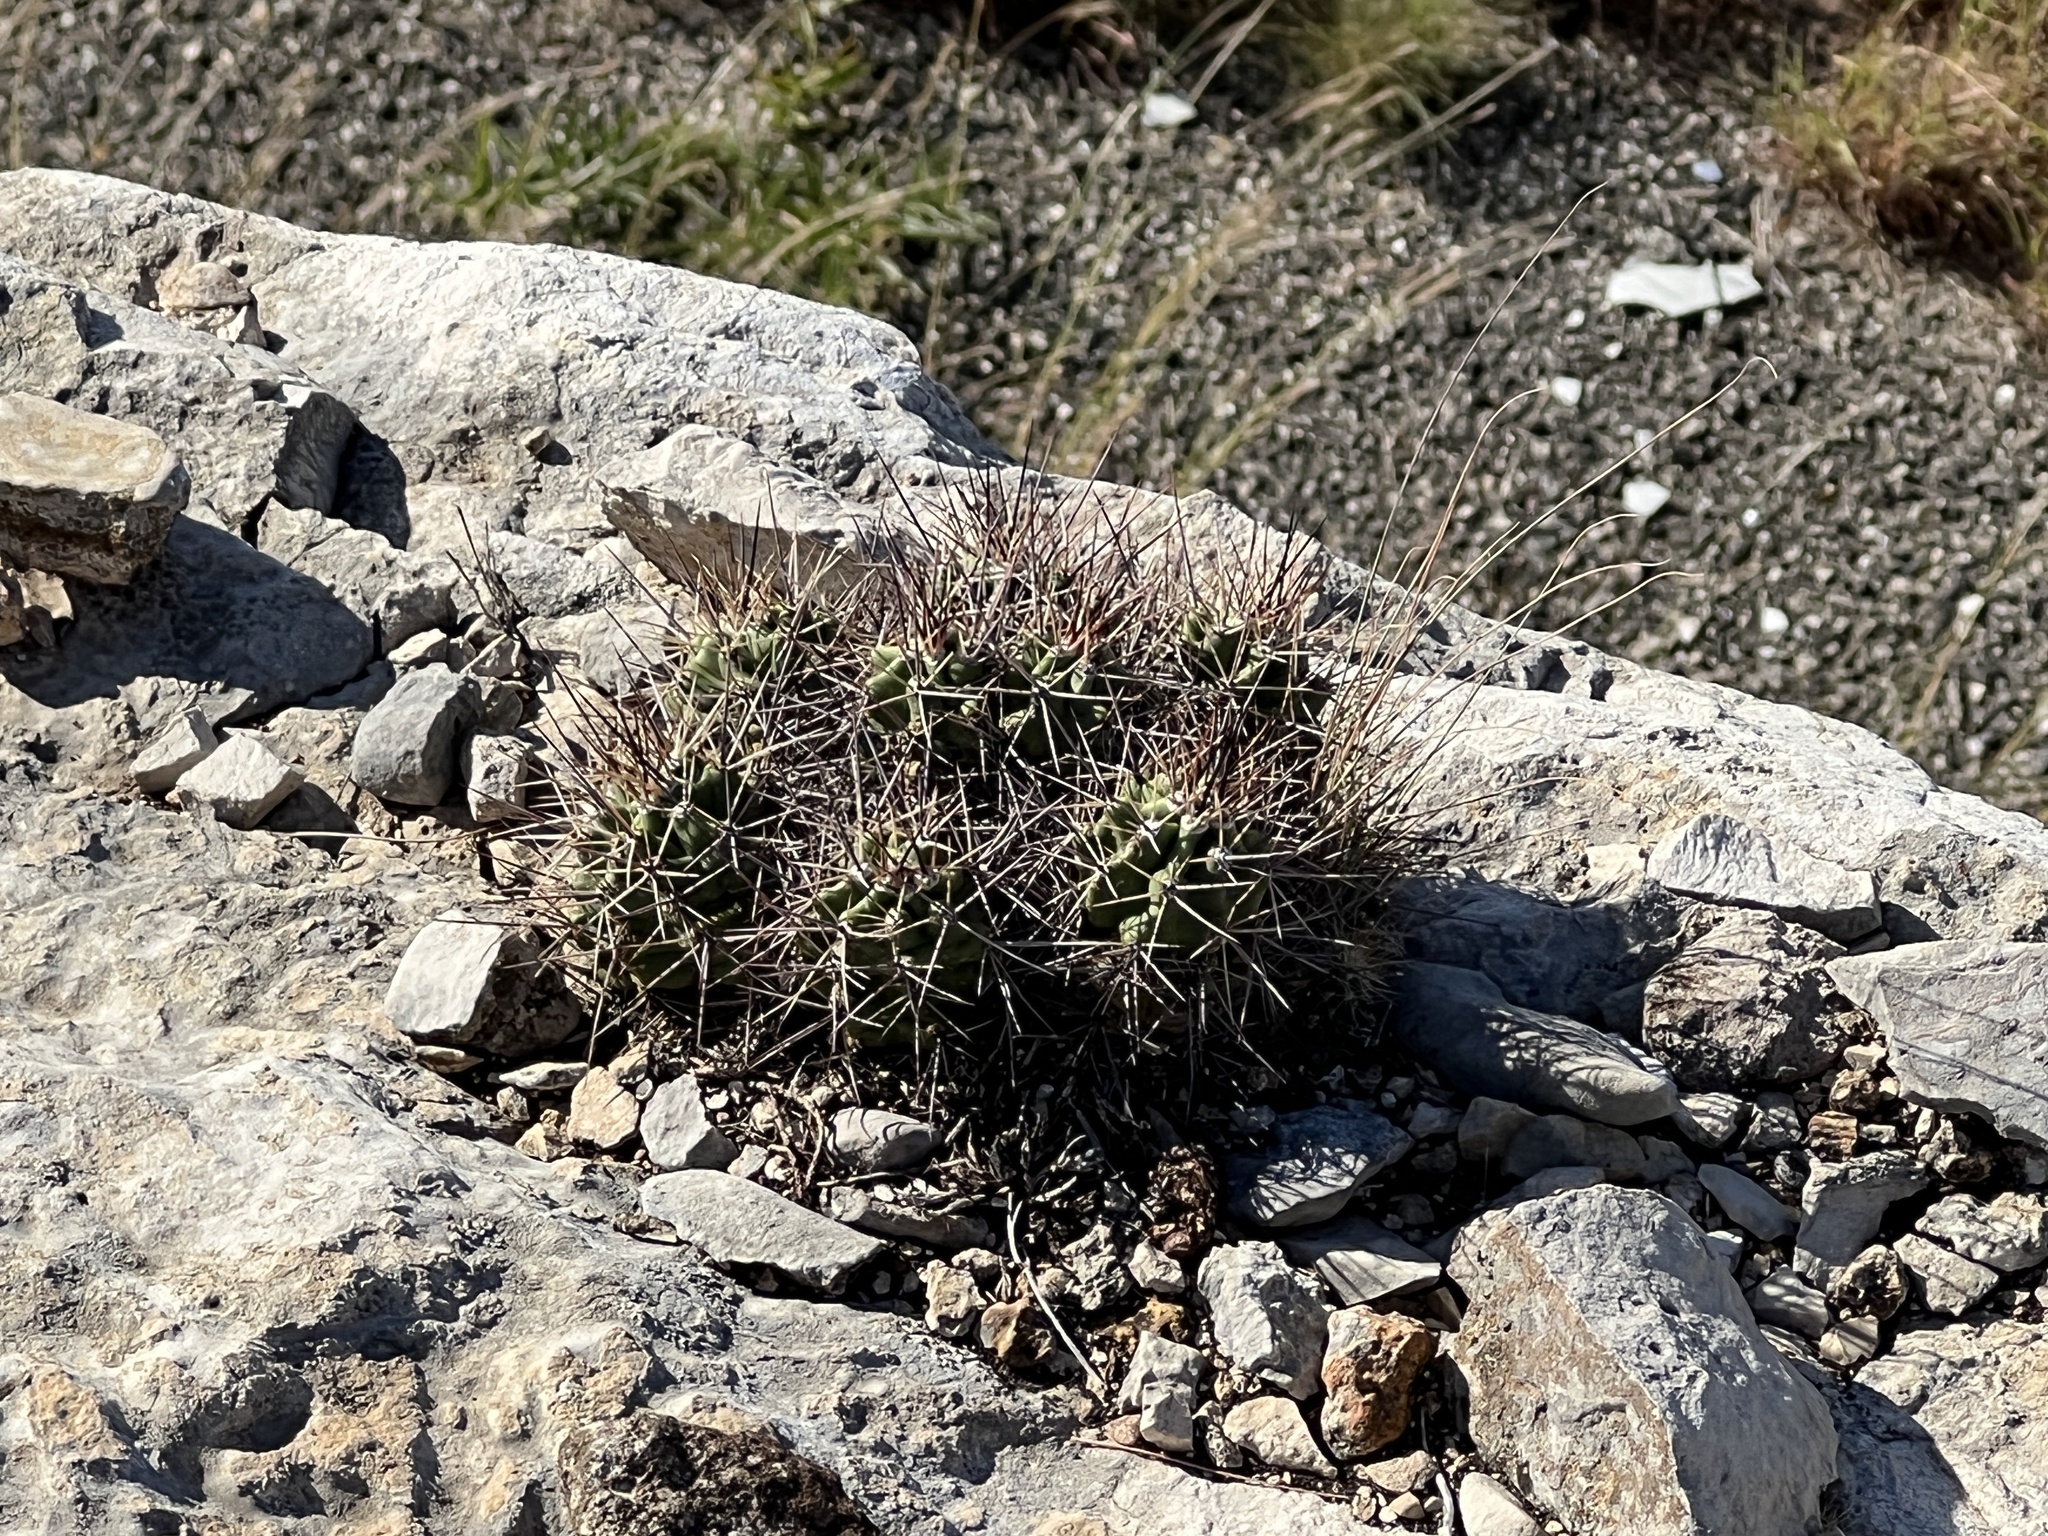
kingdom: Plantae
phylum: Tracheophyta
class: Magnoliopsida
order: Caryophyllales
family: Cactaceae
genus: Echinocereus
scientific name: Echinocereus coccineus
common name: Scarlet hedgehog cactus
